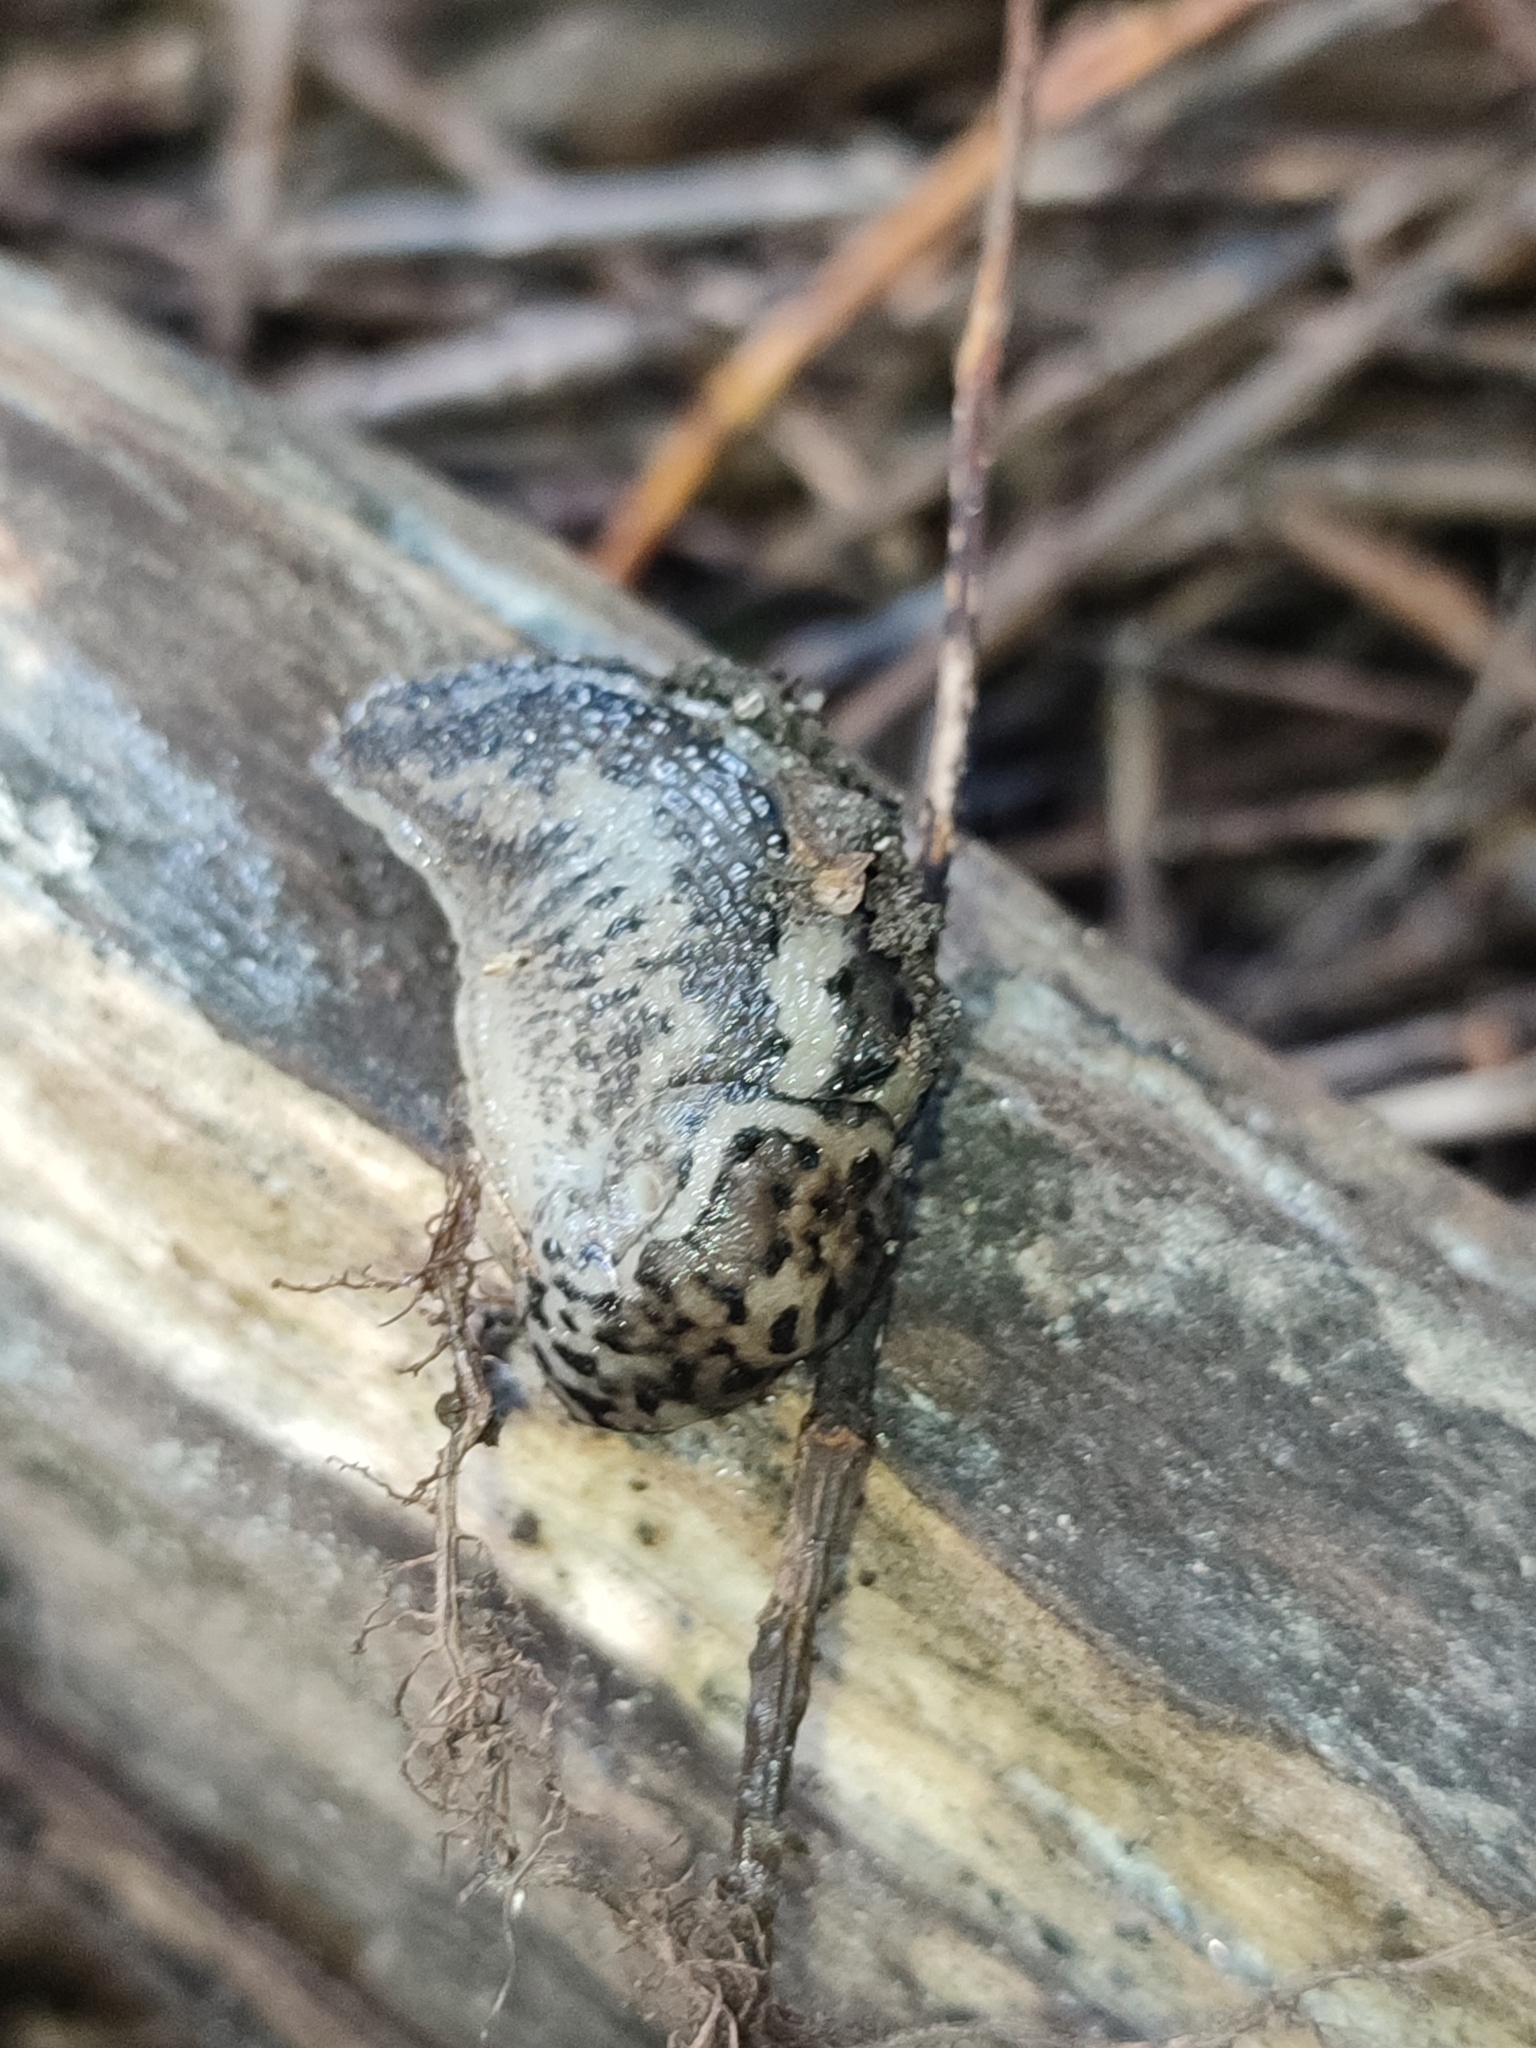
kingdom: Animalia
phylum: Mollusca
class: Gastropoda
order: Stylommatophora
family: Limacidae
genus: Limax
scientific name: Limax maximus
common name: Great grey slug
